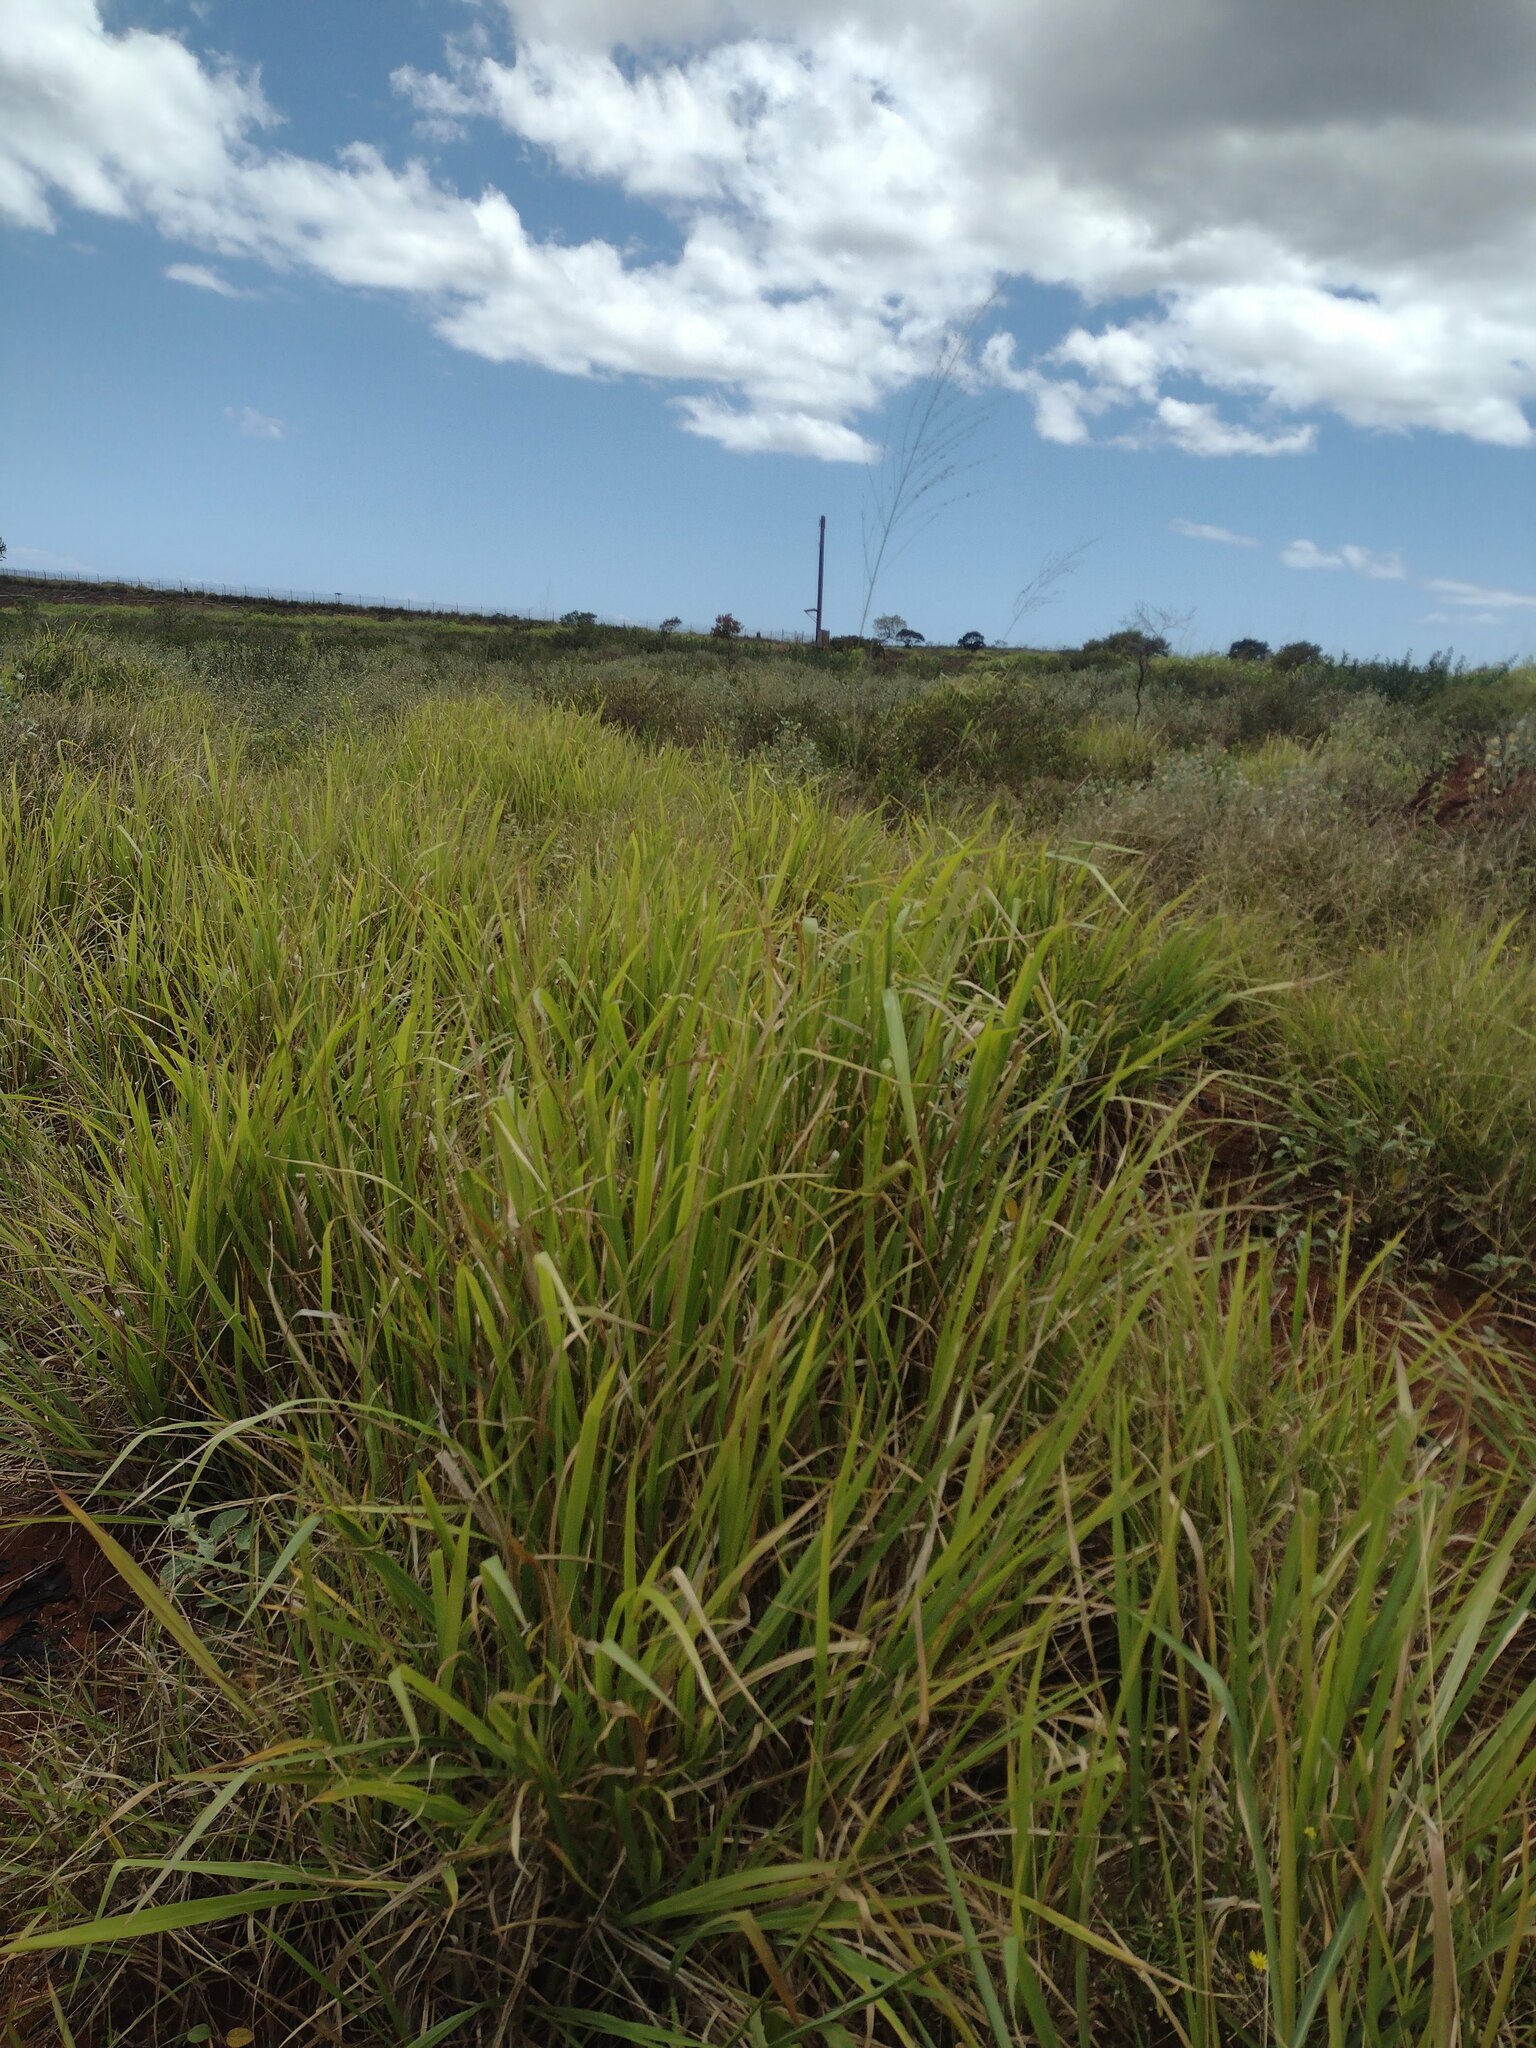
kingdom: Plantae
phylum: Tracheophyta
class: Liliopsida
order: Poales
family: Poaceae
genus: Megathyrsus
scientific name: Megathyrsus maximus
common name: Guineagrass
